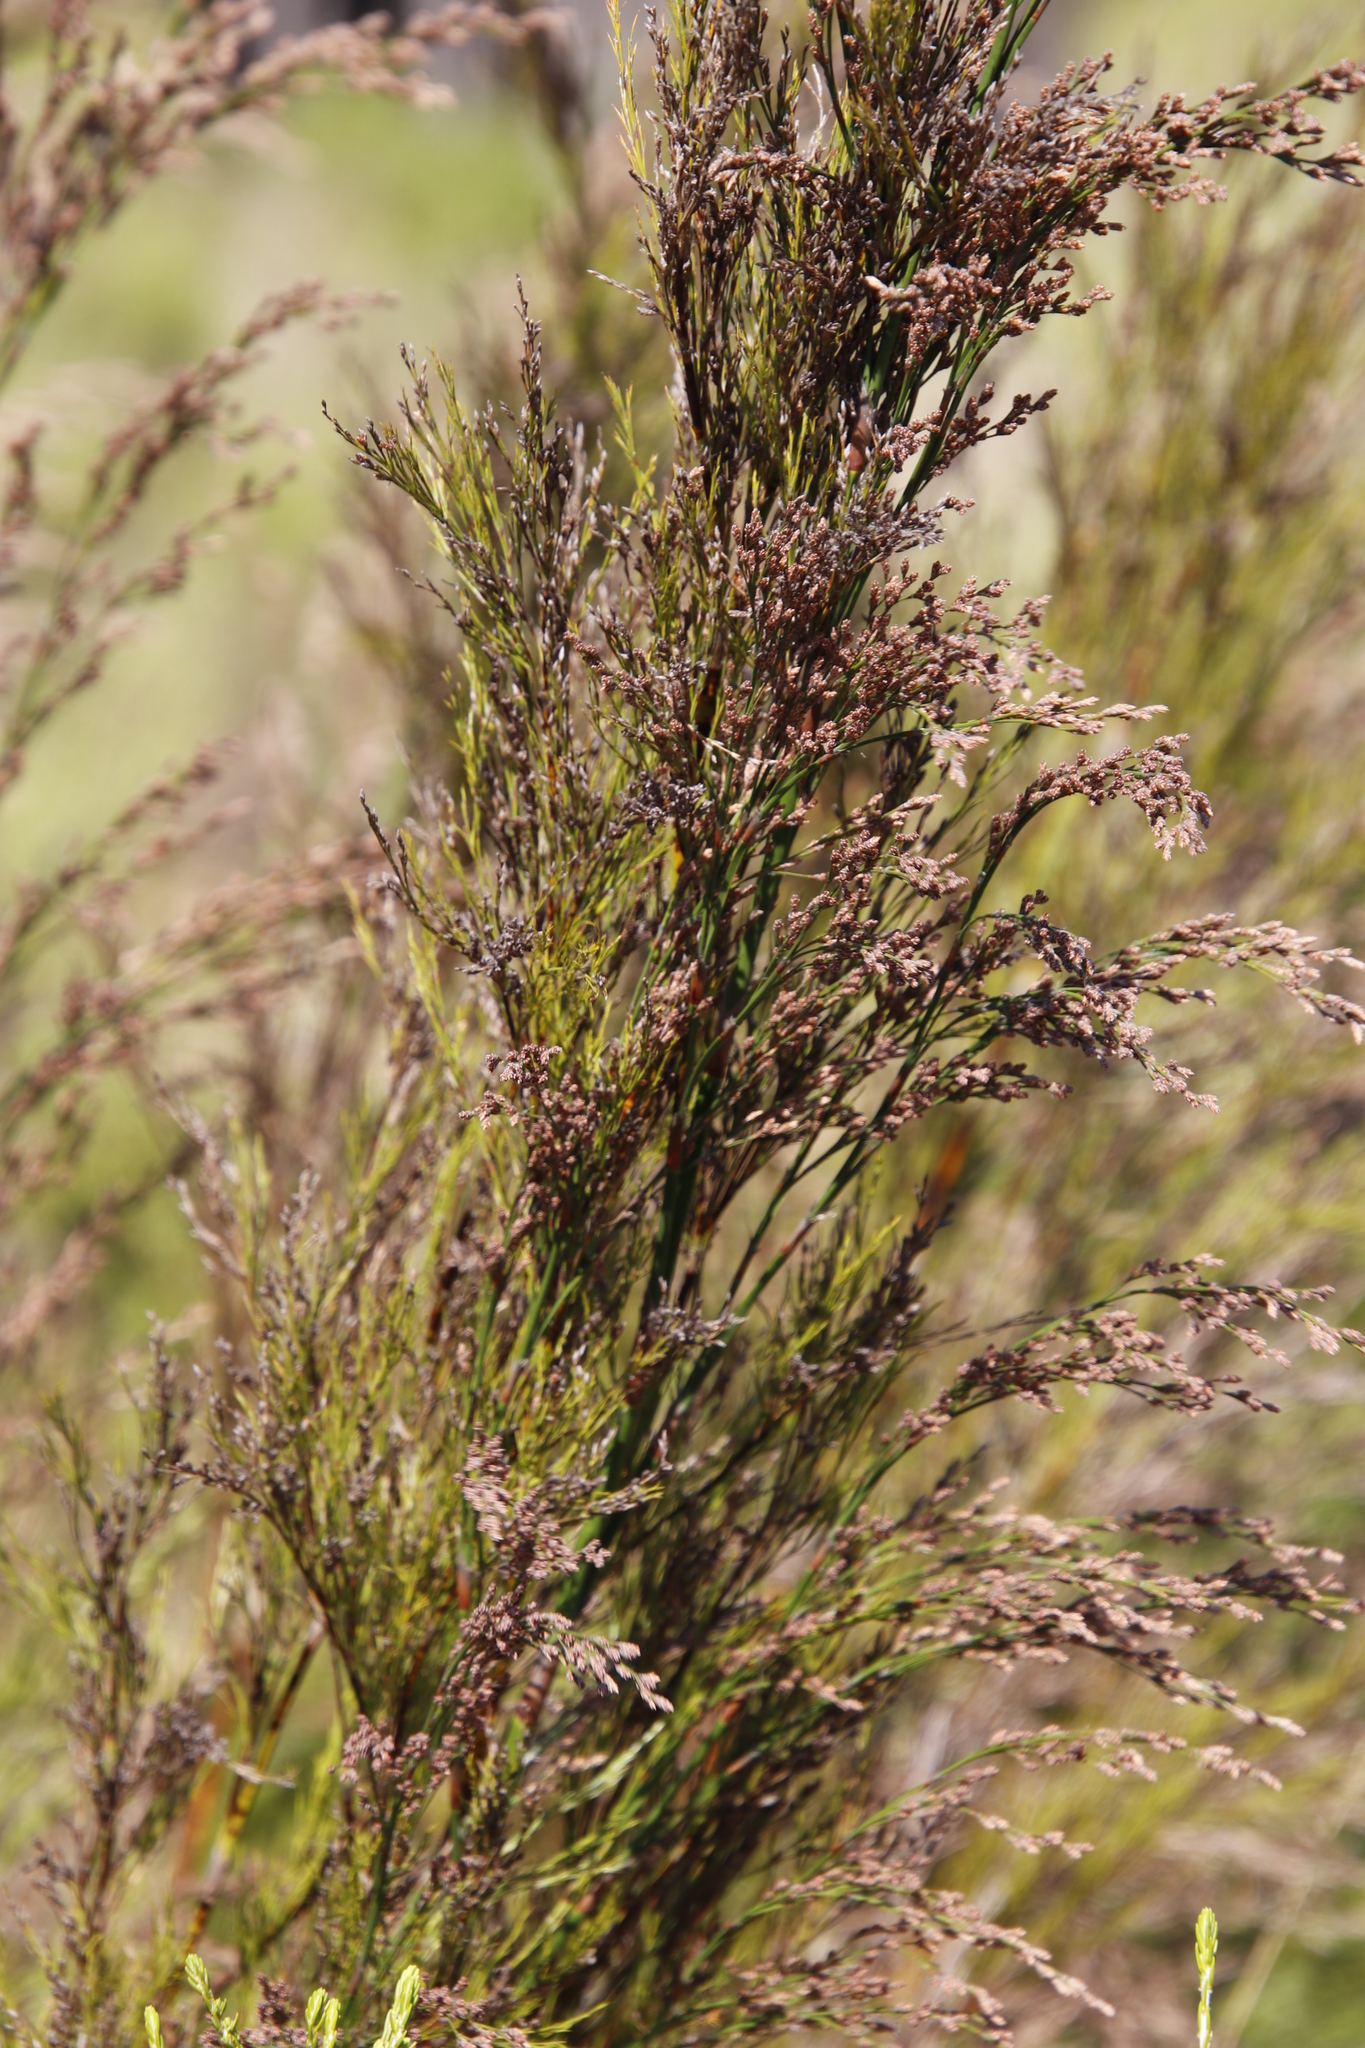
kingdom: Plantae
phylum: Tracheophyta
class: Liliopsida
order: Poales
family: Restionaceae
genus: Restio
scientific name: Restio tetragonus
